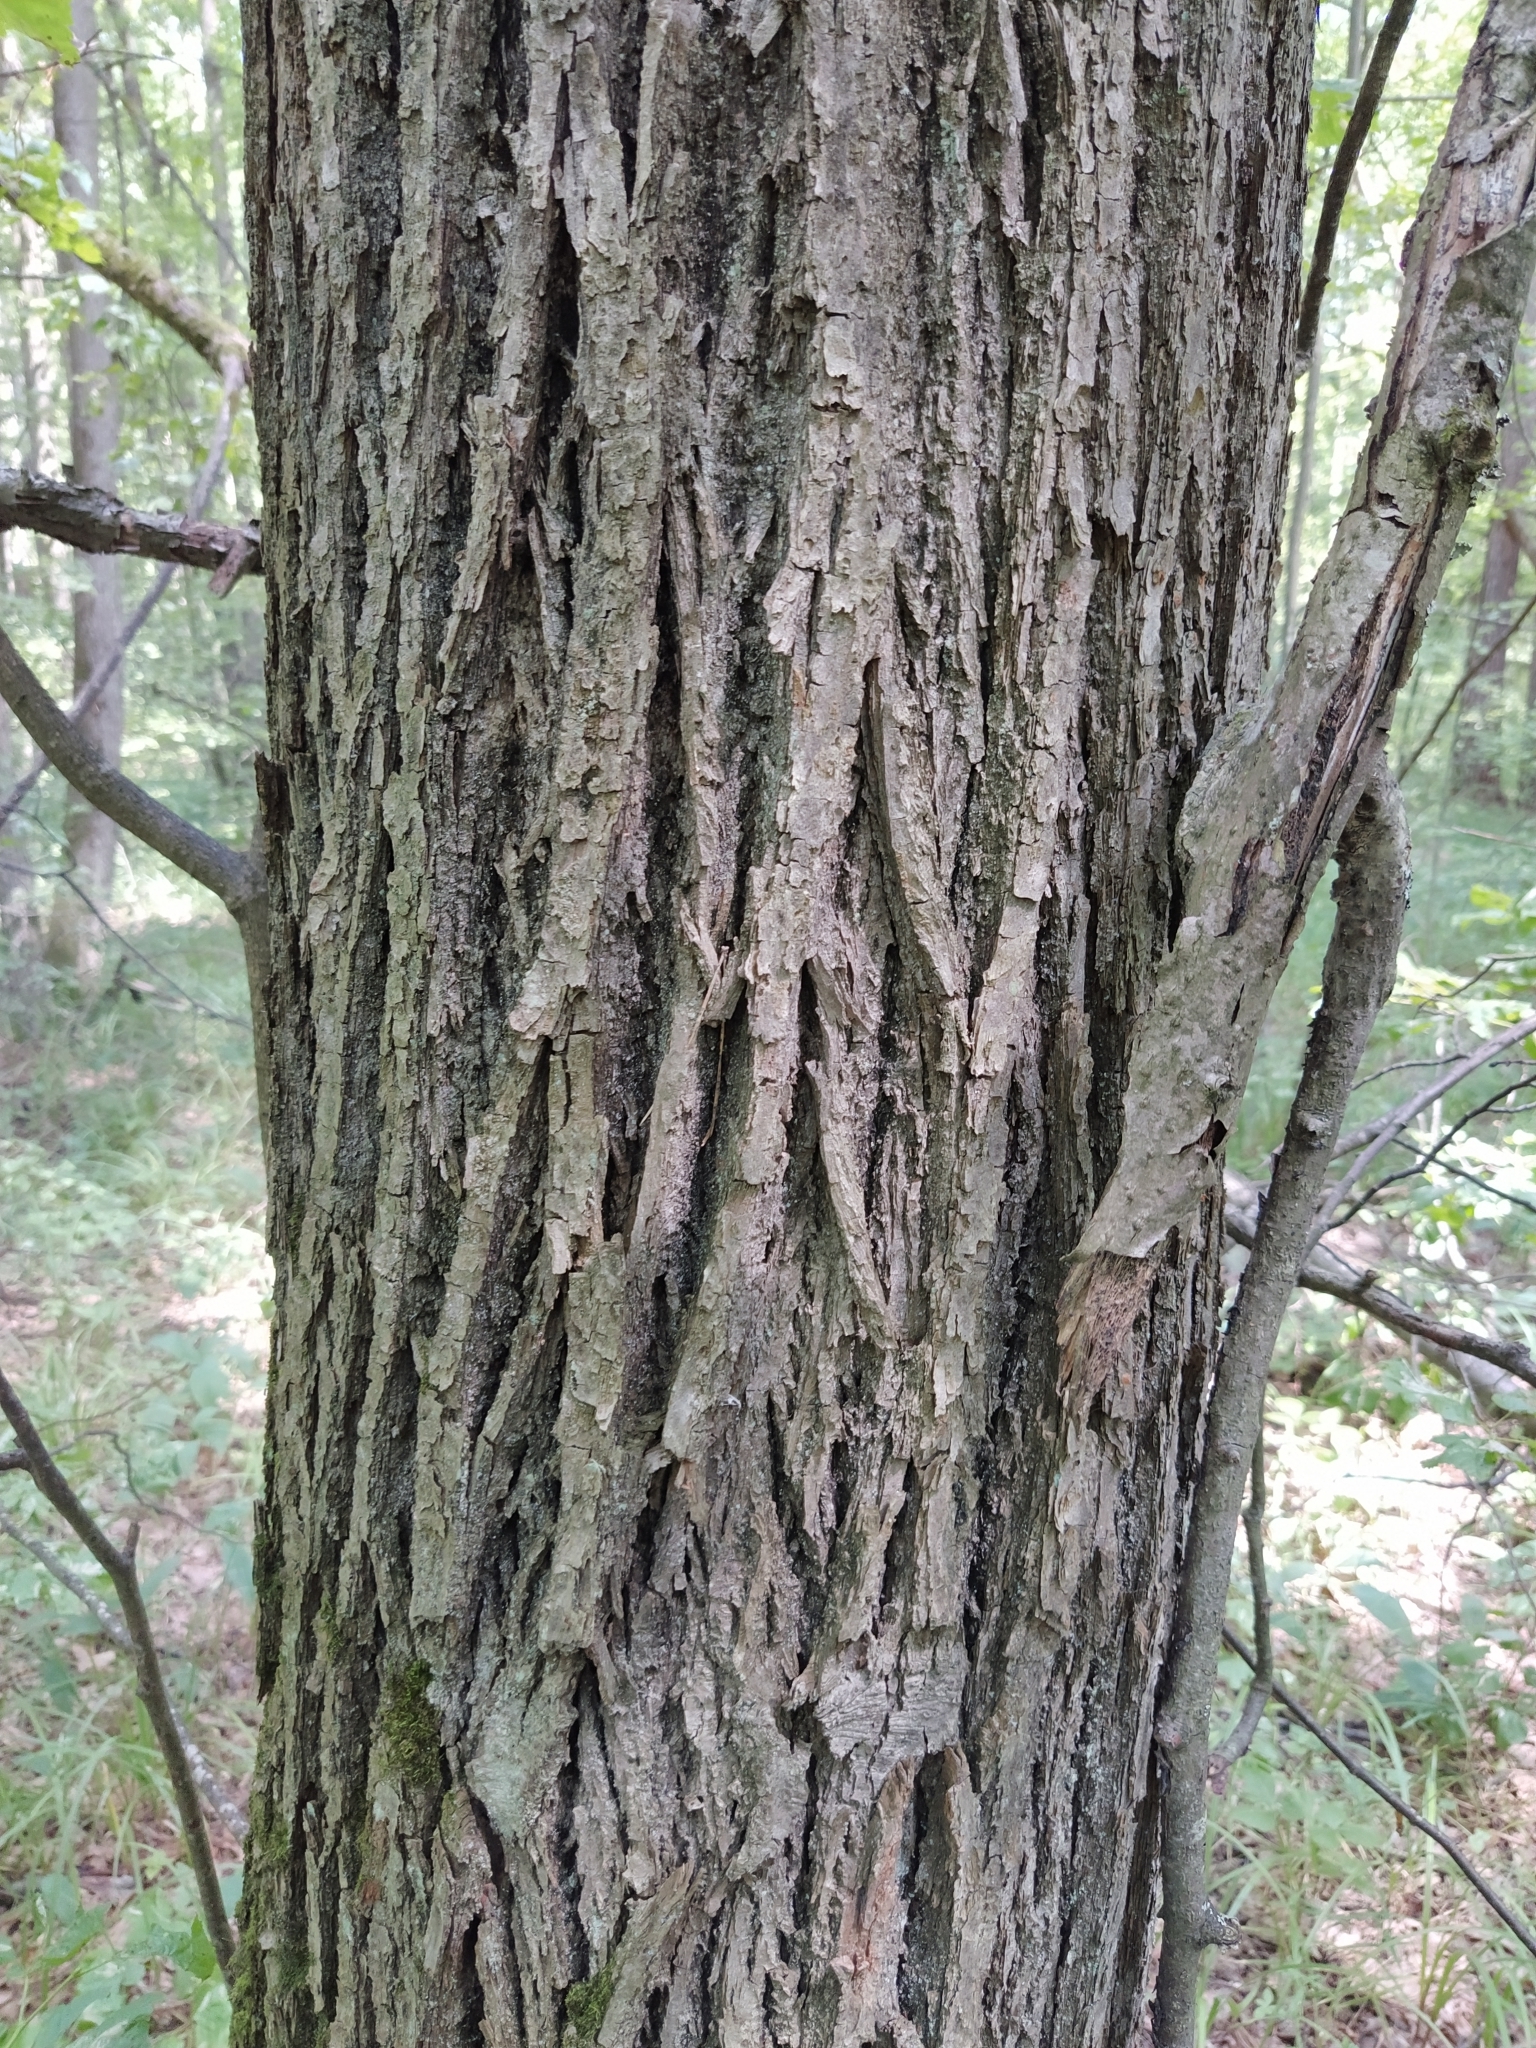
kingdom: Plantae
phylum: Tracheophyta
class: Magnoliopsida
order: Malvales
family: Malvaceae
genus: Tilia
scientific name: Tilia cordata
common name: Small-leaved lime
